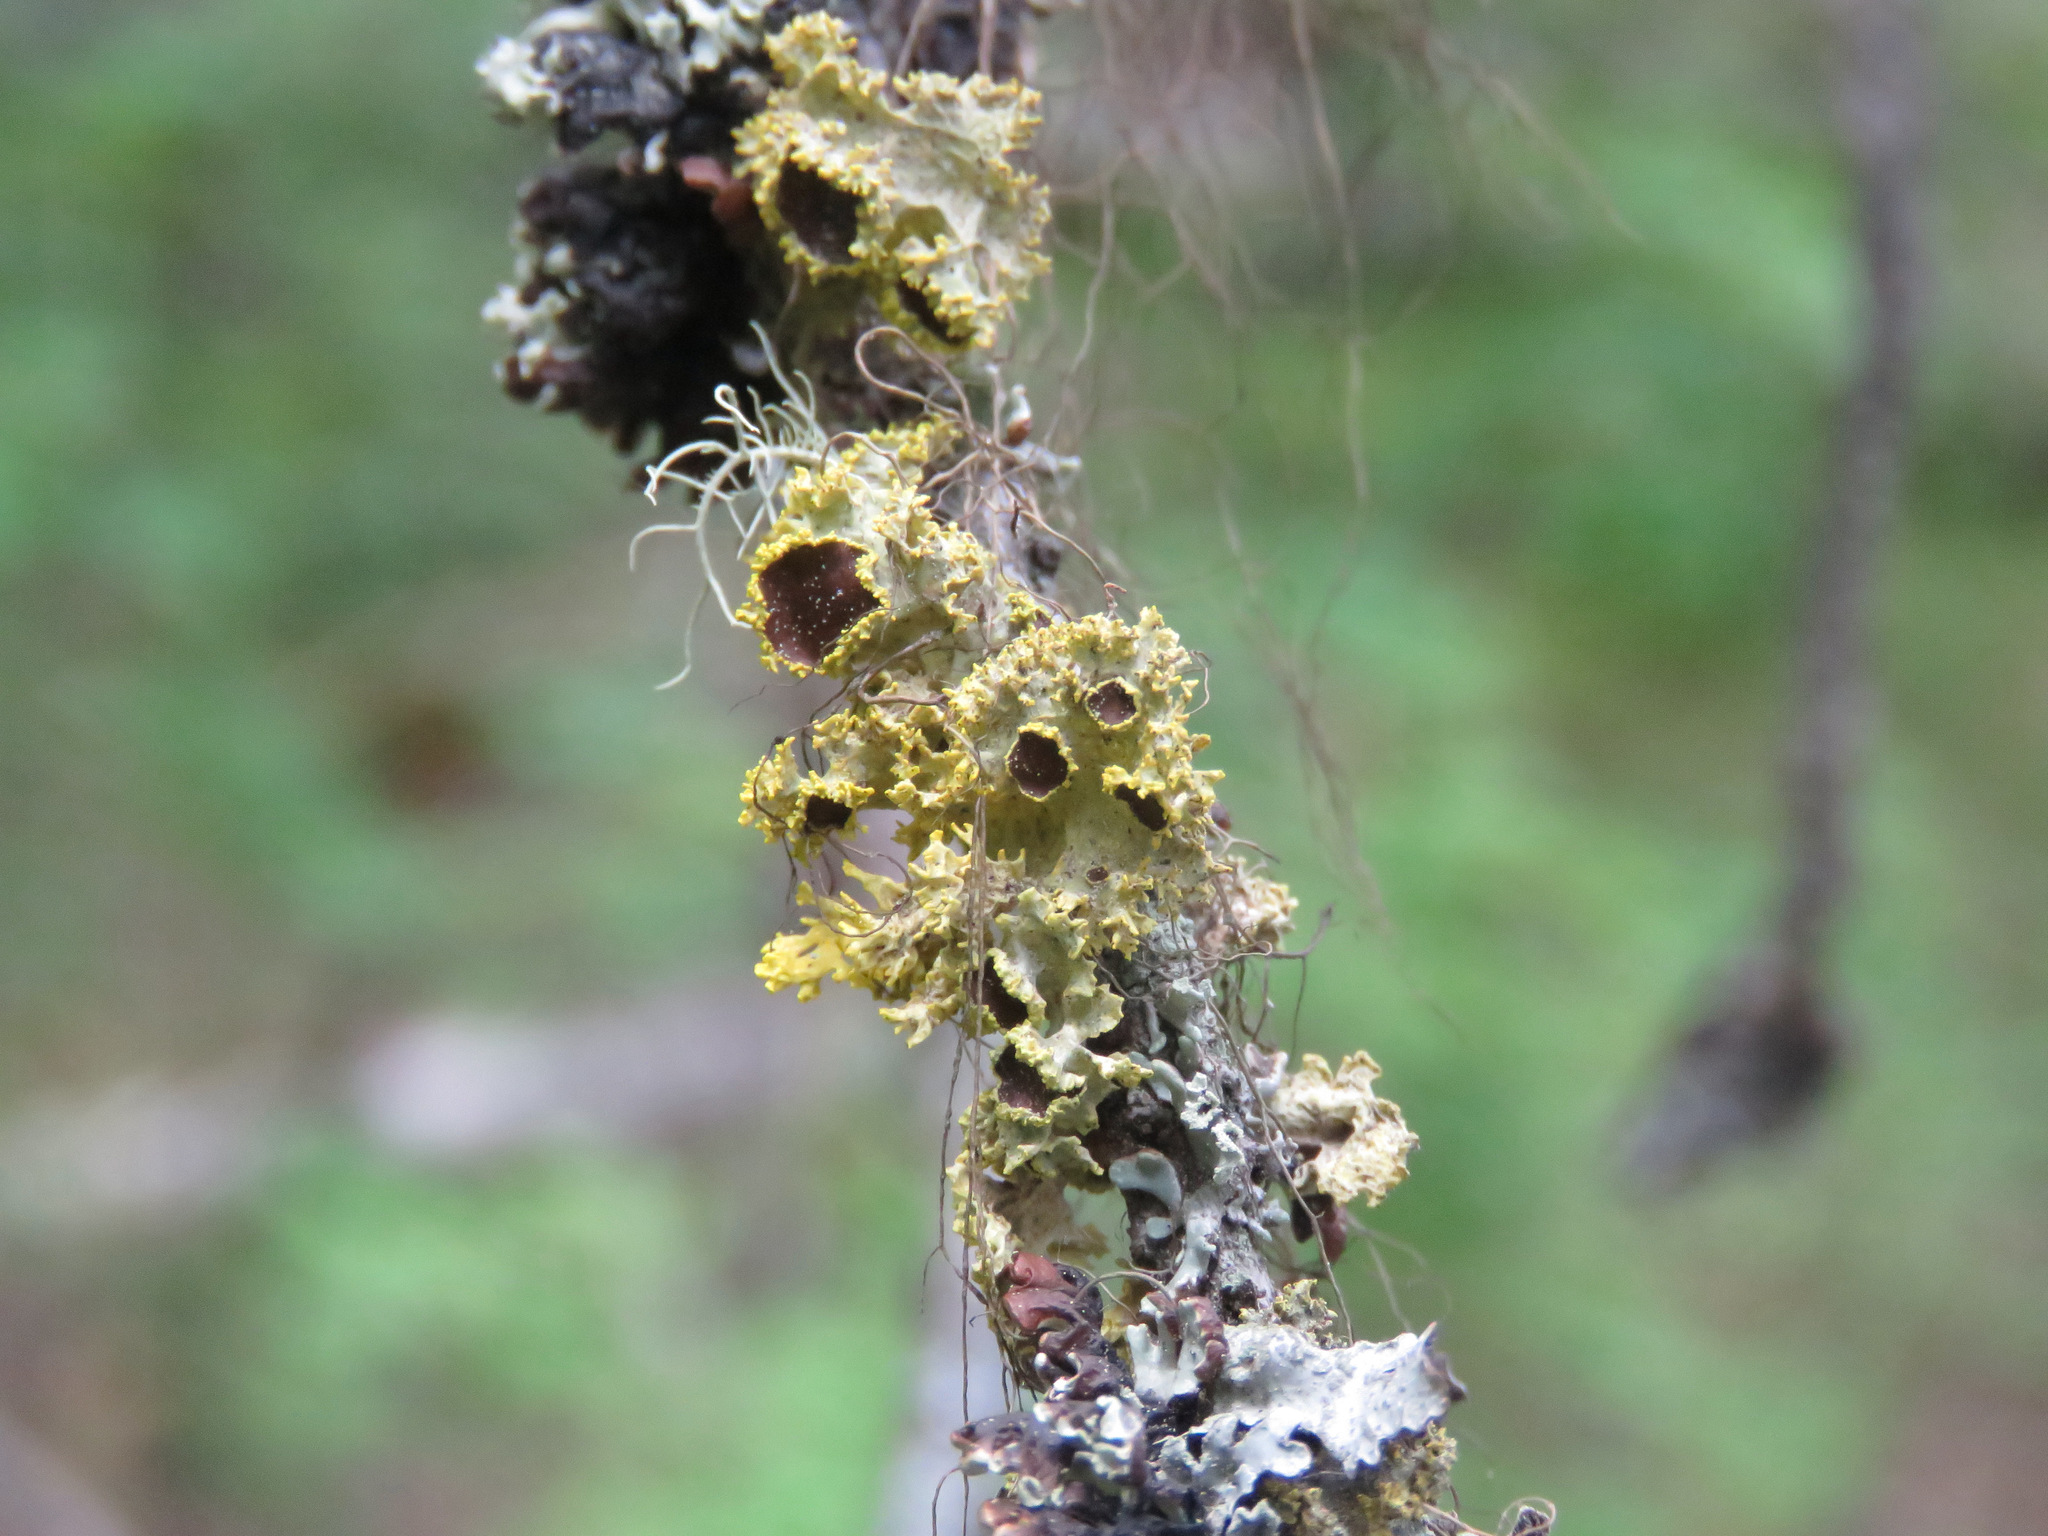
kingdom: Fungi
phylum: Ascomycota
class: Lecanoromycetes
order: Lecanorales
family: Parmeliaceae
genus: Vulpicida
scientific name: Vulpicida canadensis
